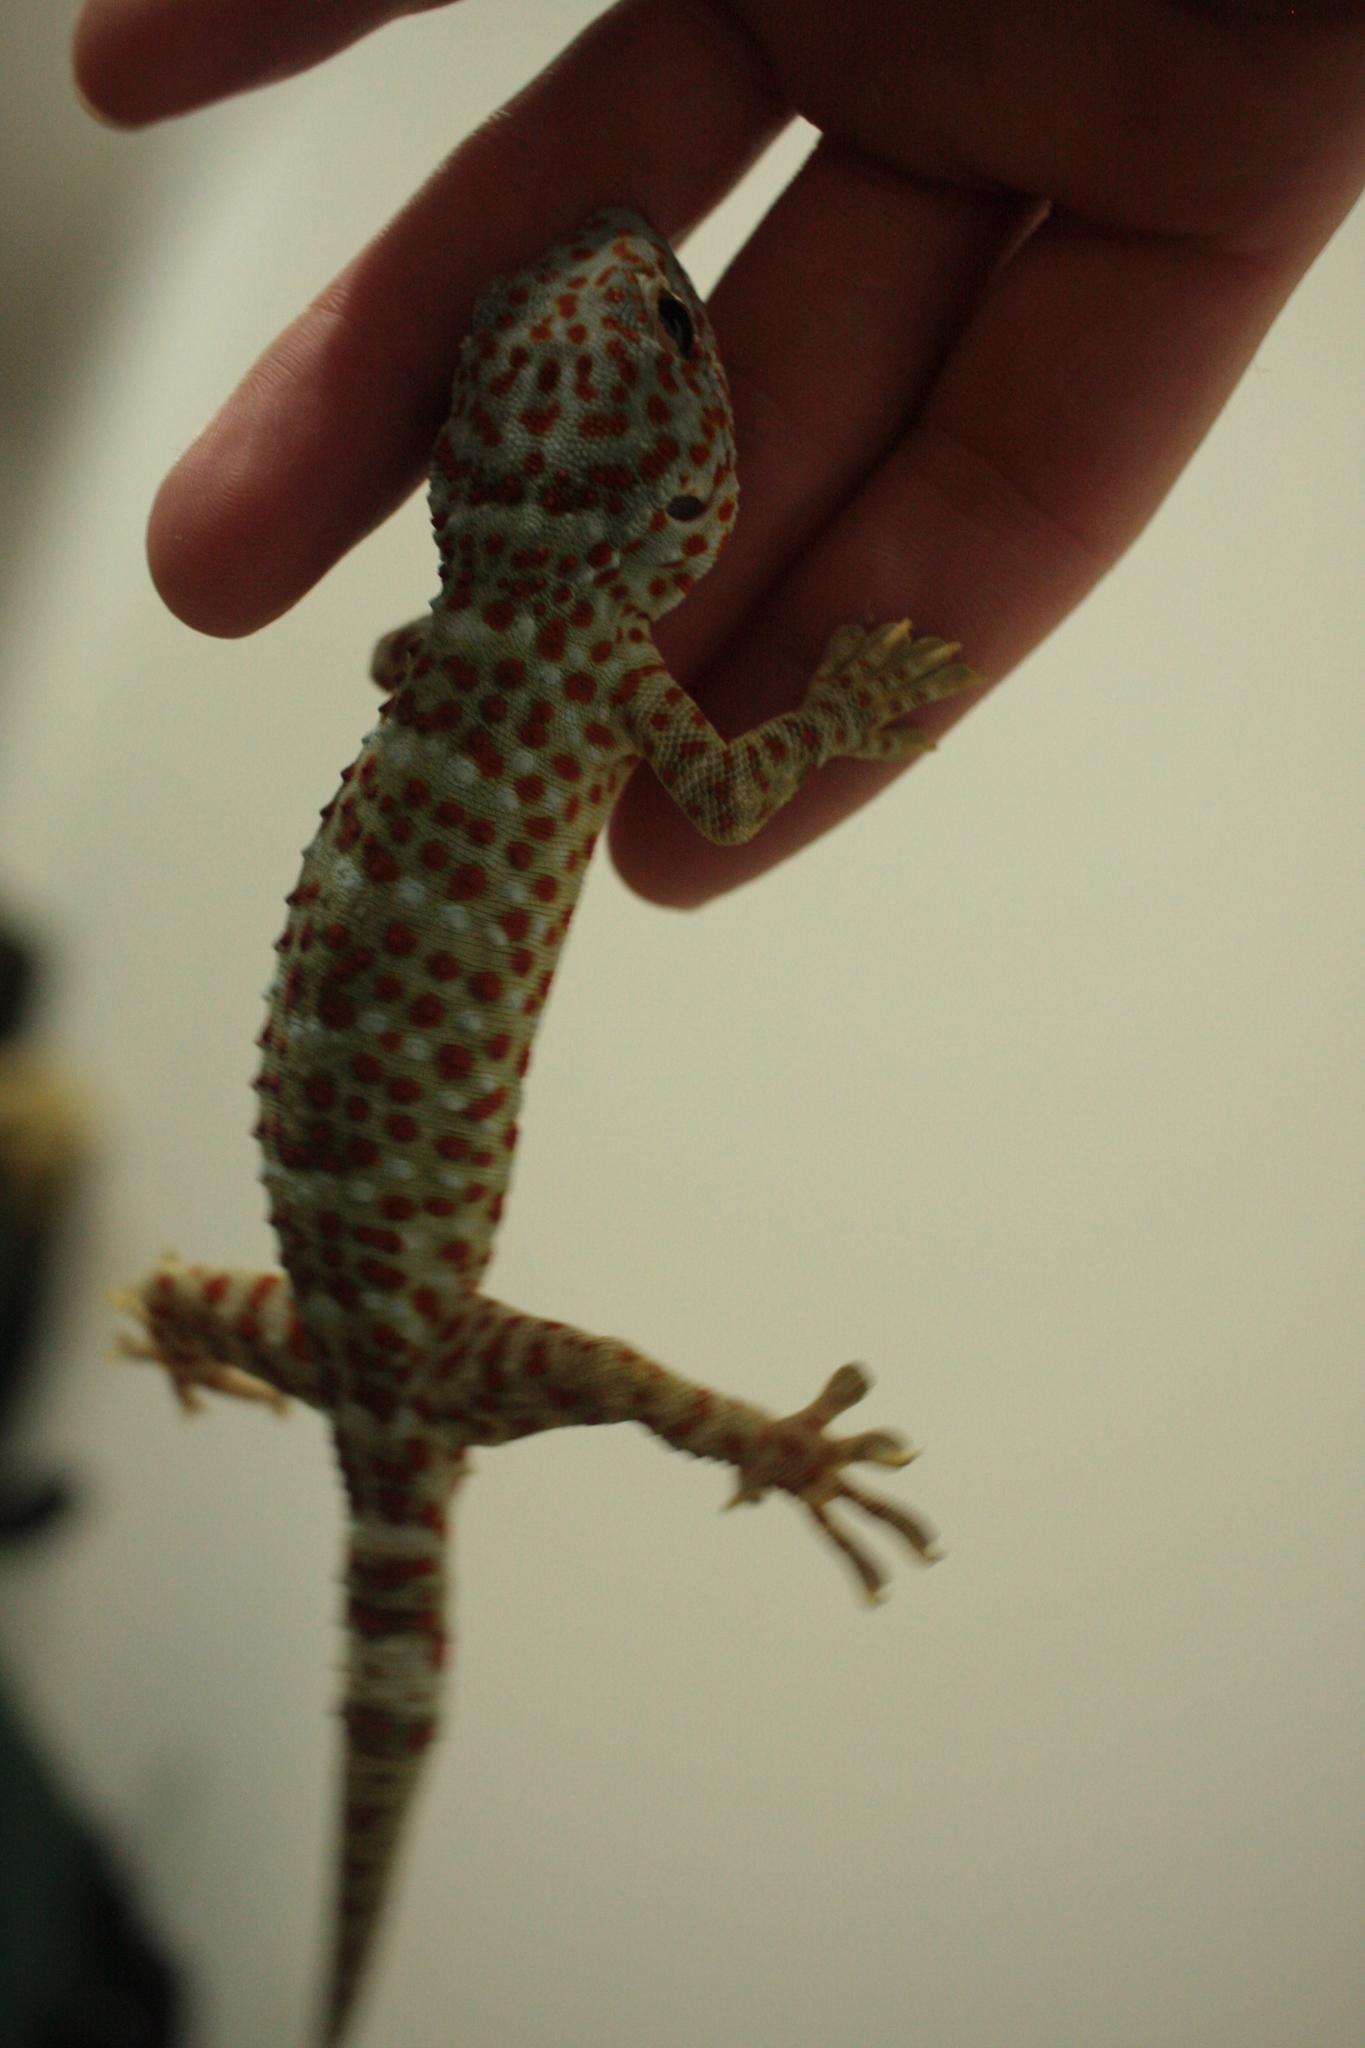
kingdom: Animalia
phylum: Chordata
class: Squamata
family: Gekkonidae
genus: Gekko
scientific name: Gekko gecko
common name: Tokay gecko
